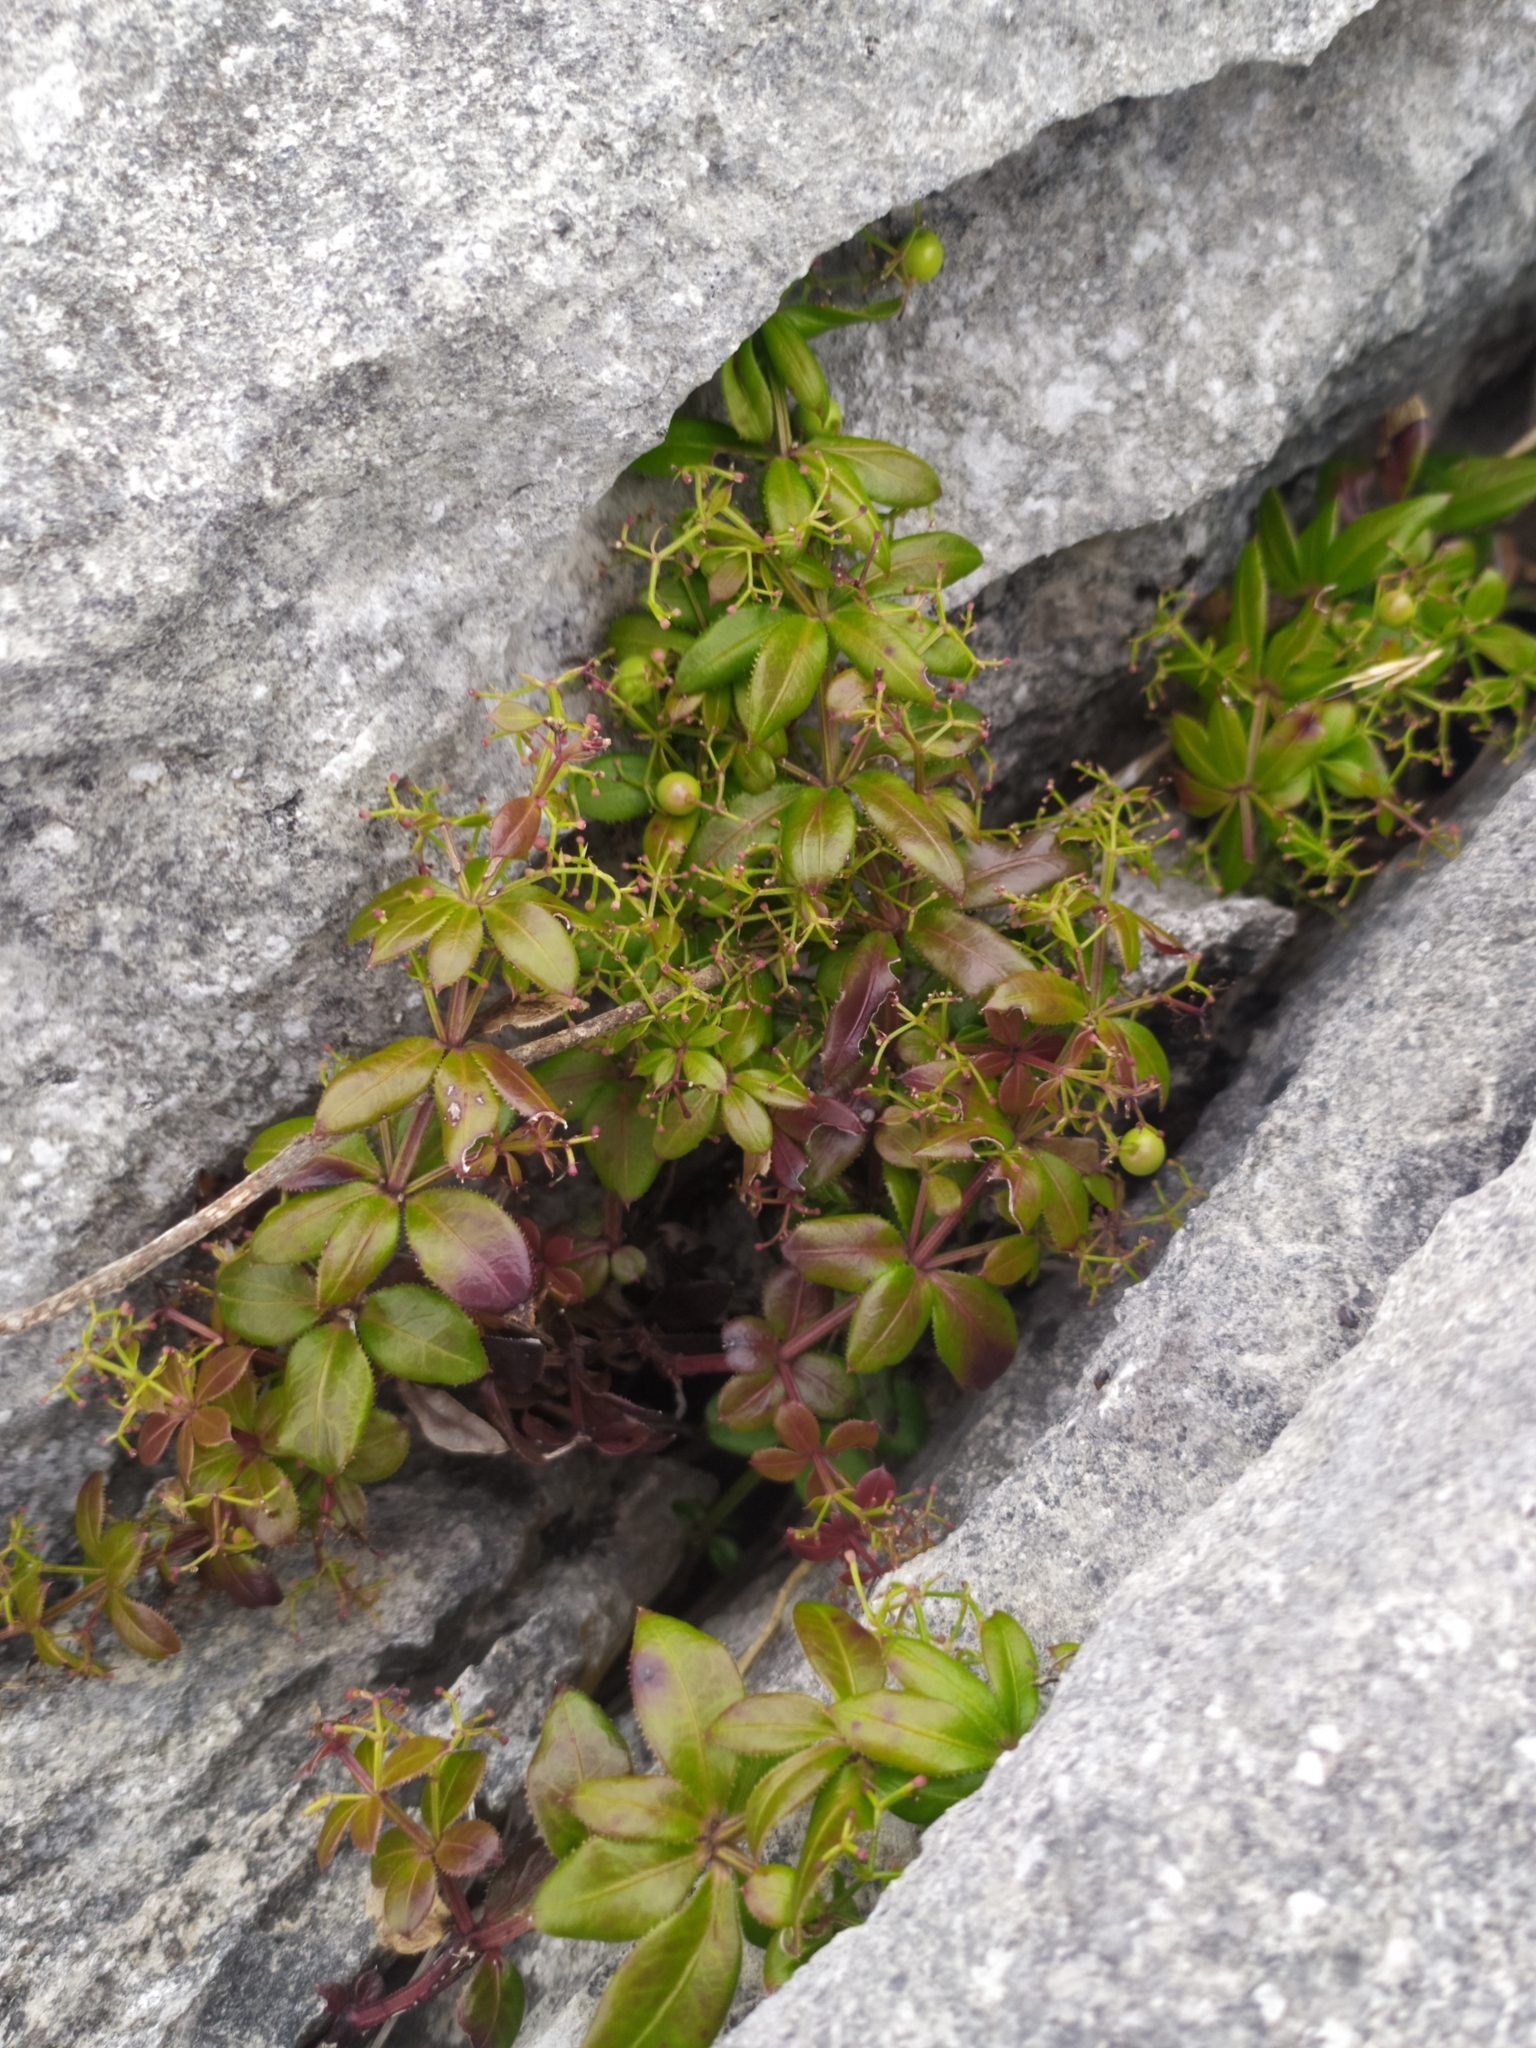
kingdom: Plantae
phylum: Tracheophyta
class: Magnoliopsida
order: Gentianales
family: Rubiaceae
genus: Rubia
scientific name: Rubia peregrina
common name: Wild madder
